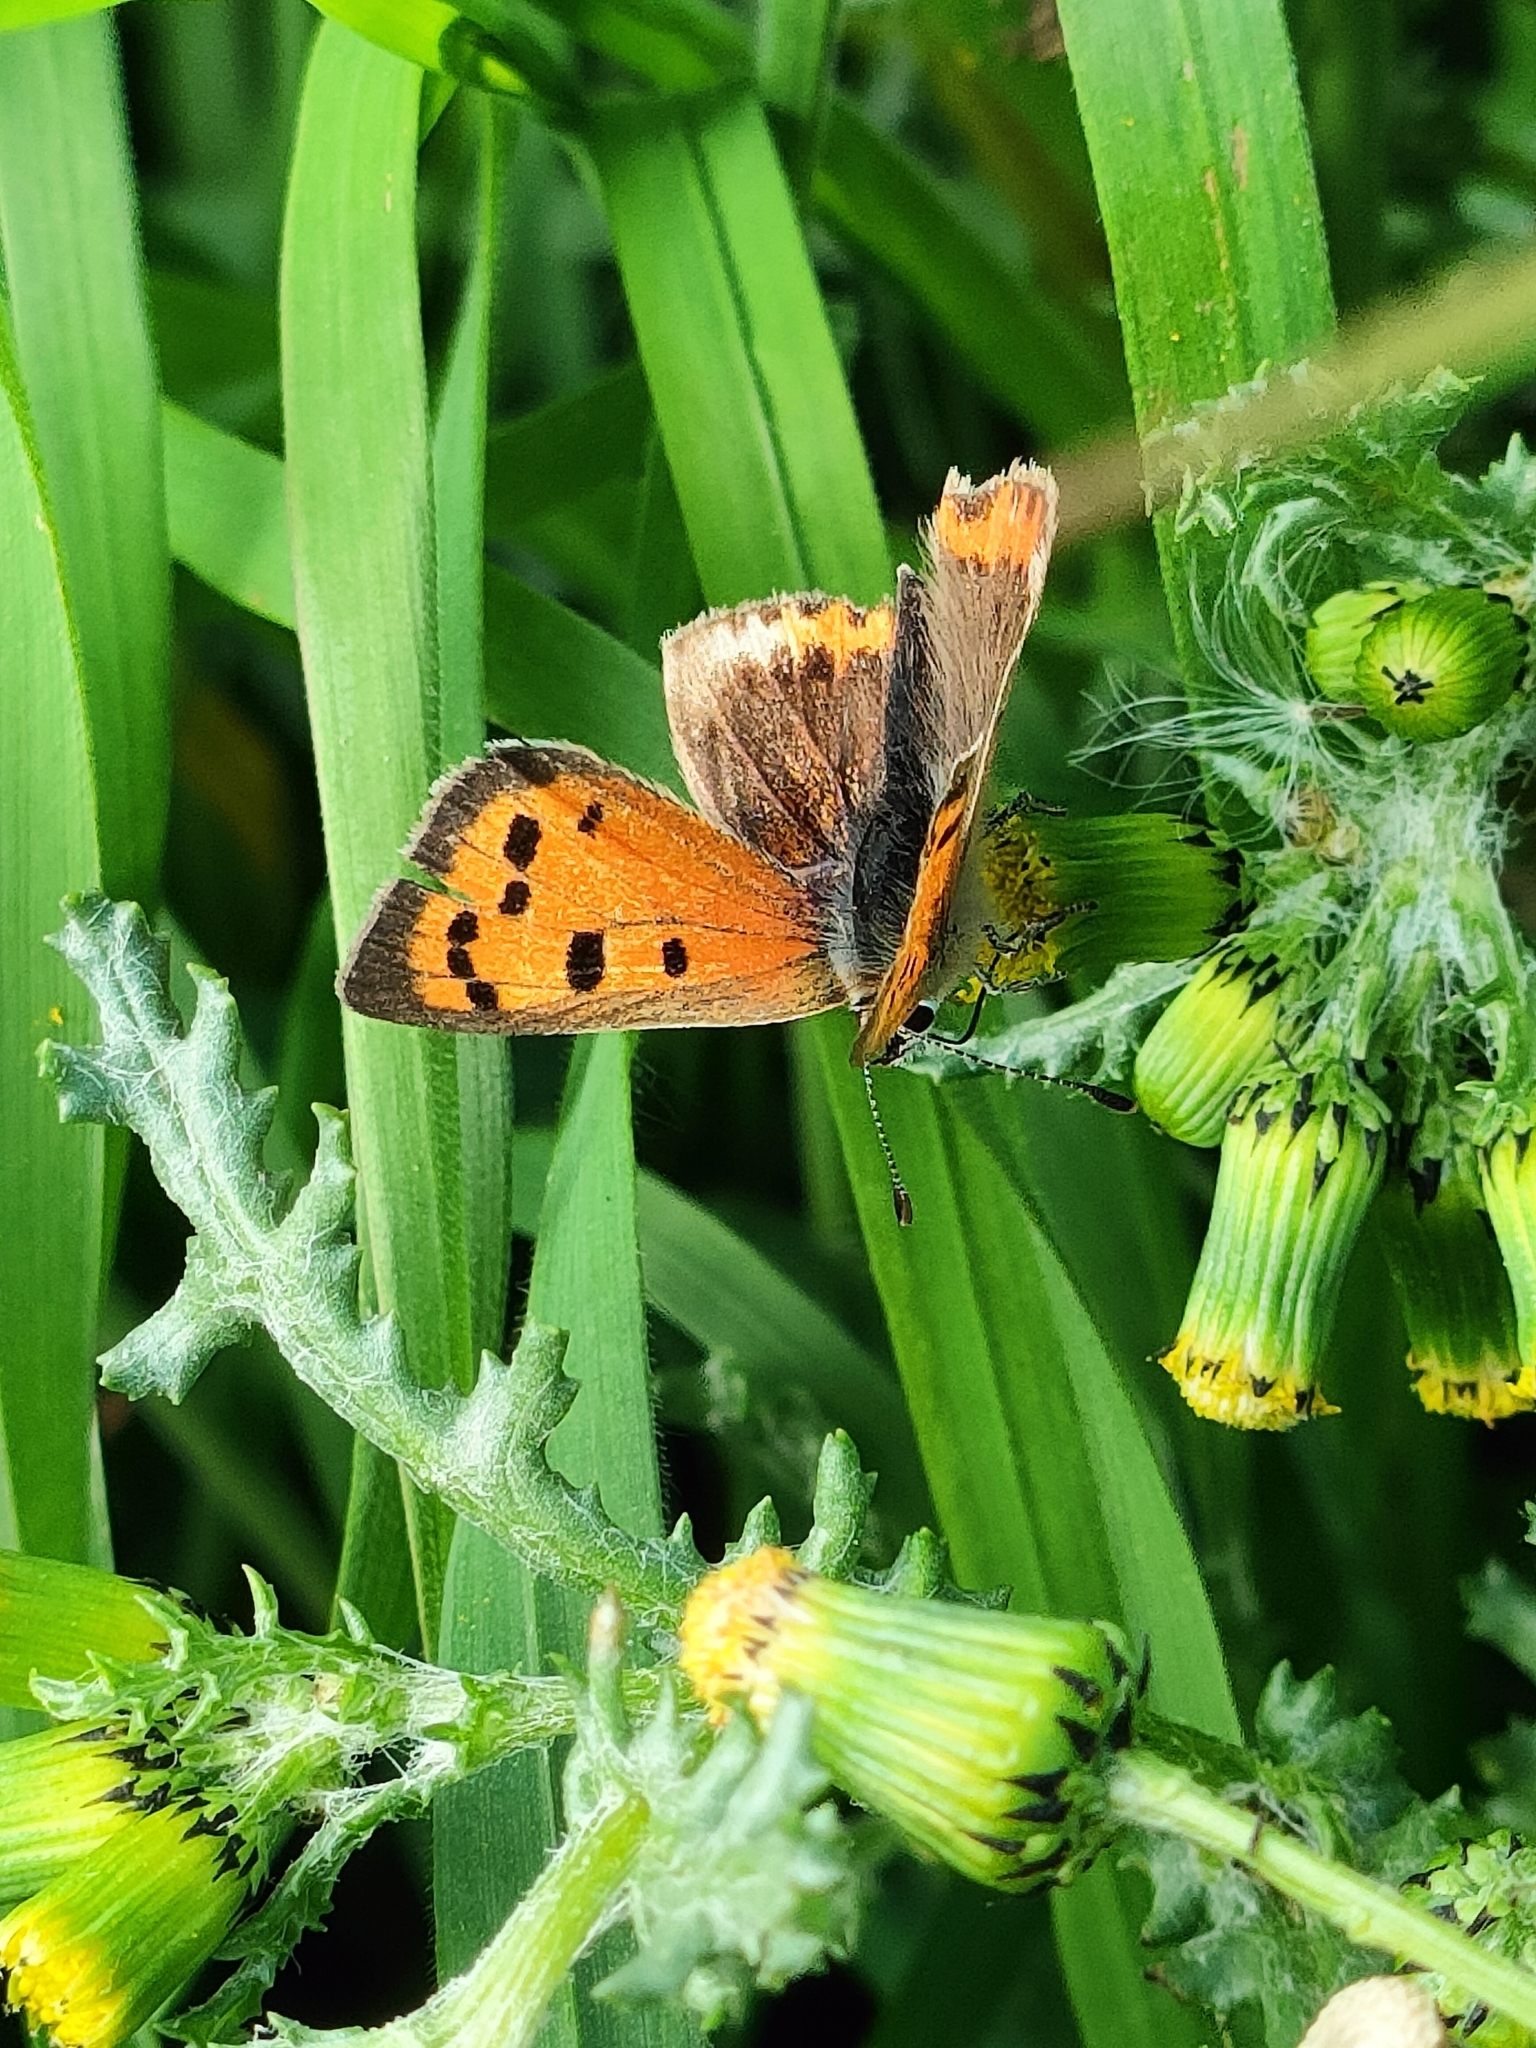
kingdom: Animalia
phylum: Arthropoda
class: Insecta
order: Lepidoptera
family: Lycaenidae
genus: Lycaena
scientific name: Lycaena phlaeas
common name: Small copper
